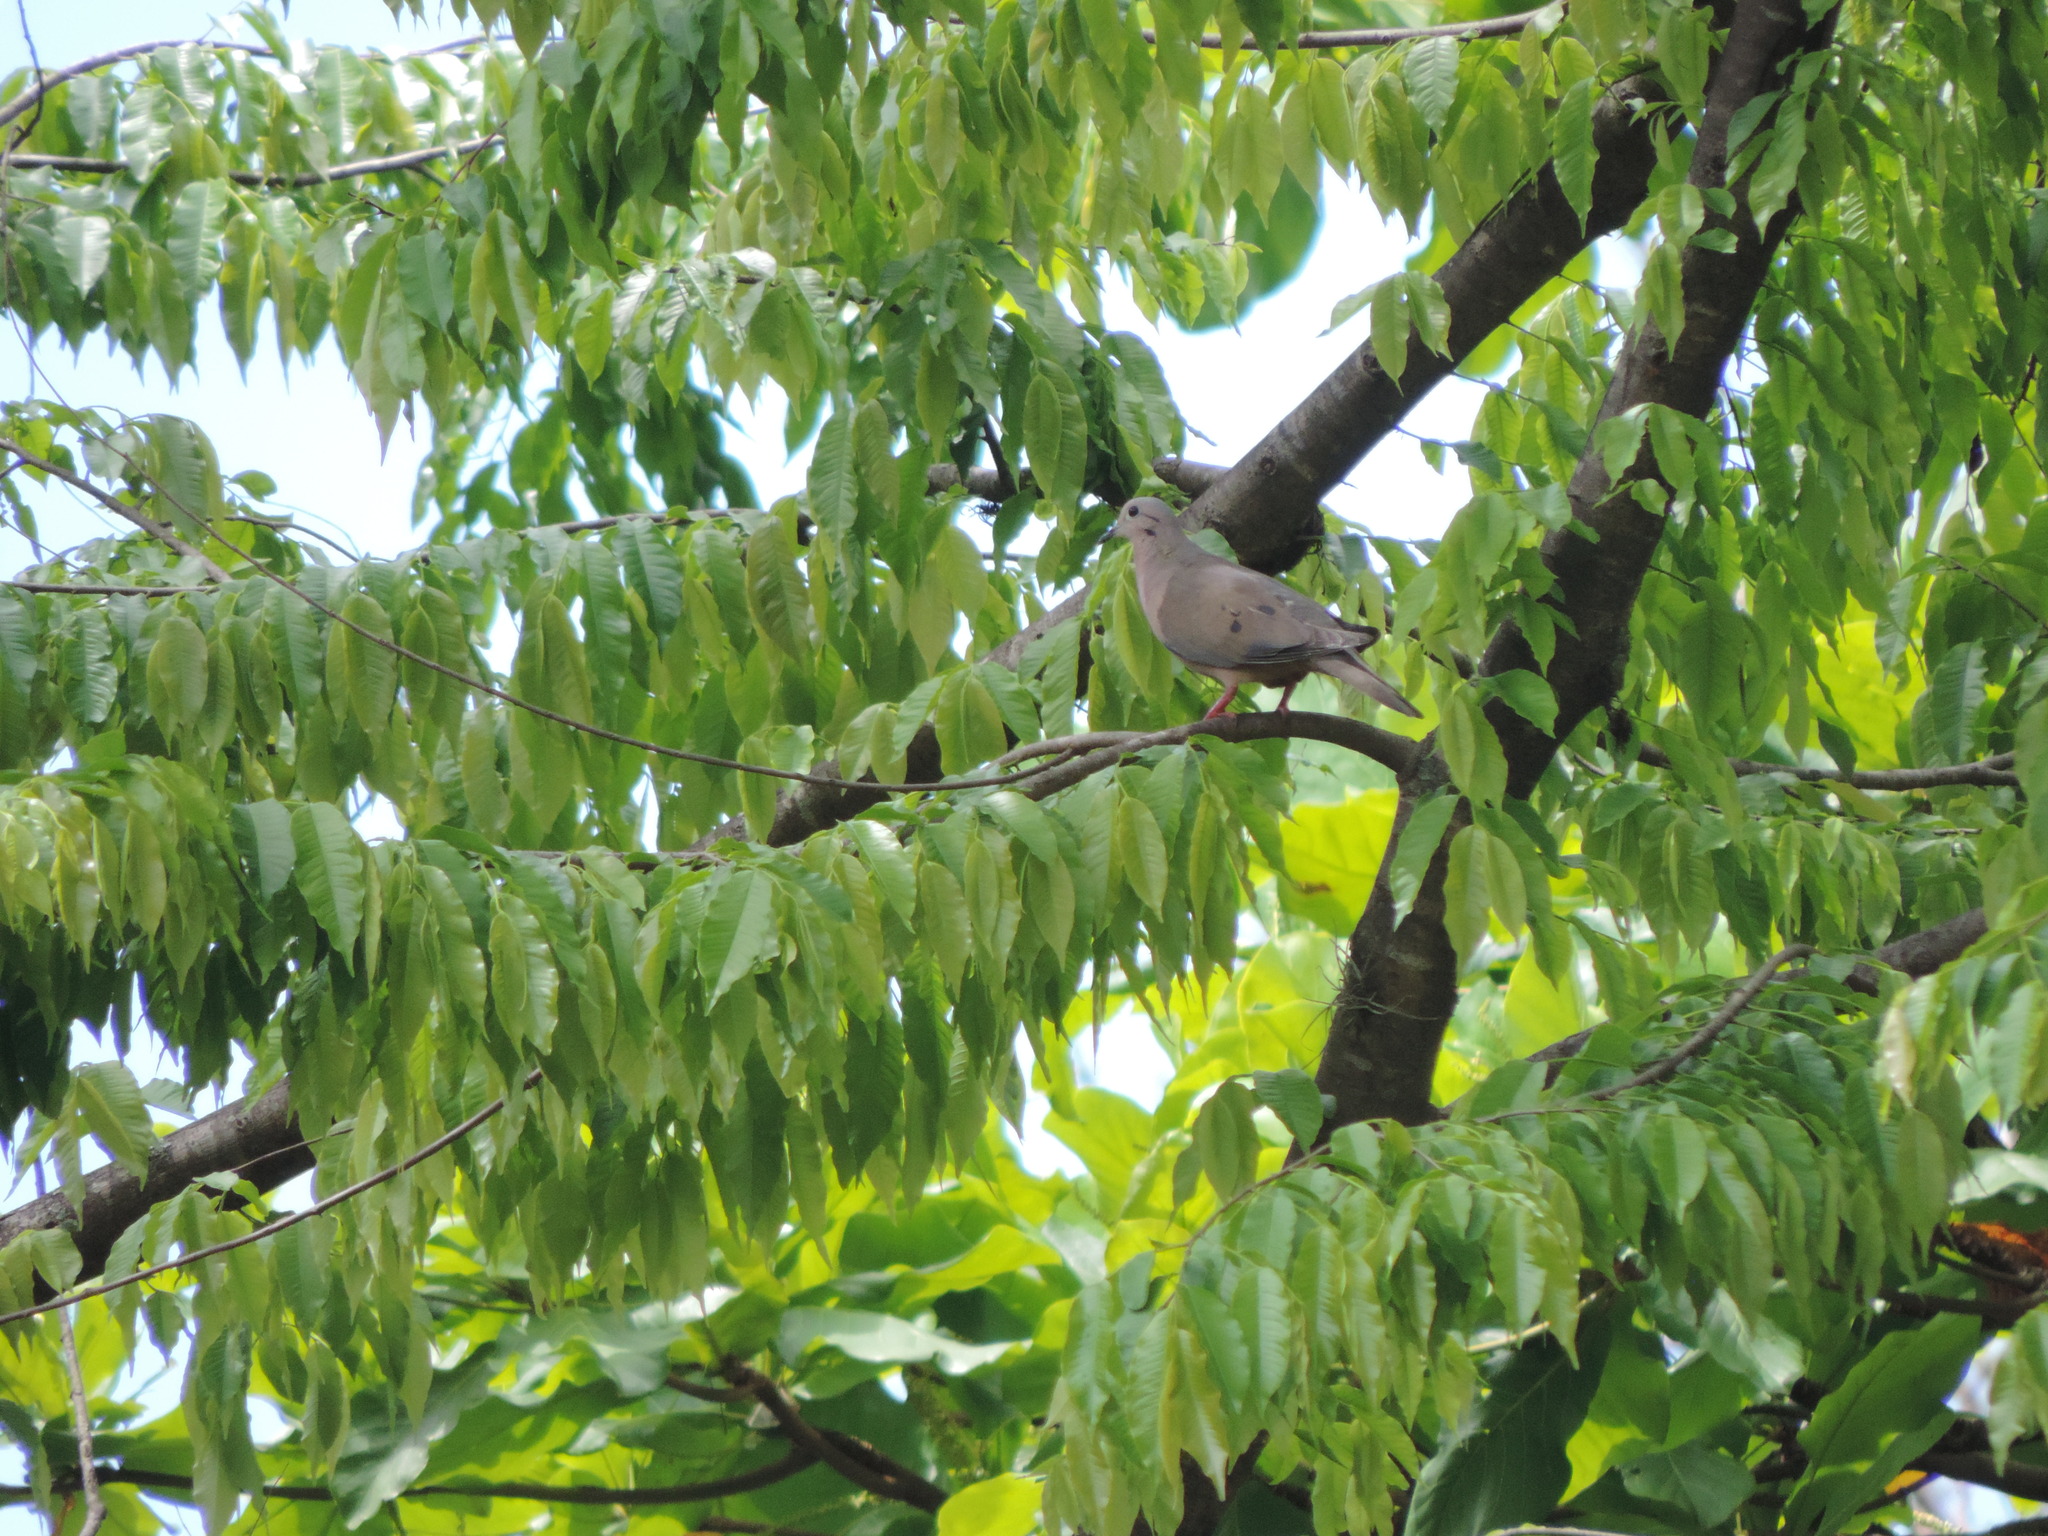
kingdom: Animalia
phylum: Chordata
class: Aves
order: Columbiformes
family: Columbidae
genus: Zenaida
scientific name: Zenaida auriculata
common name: Eared dove
